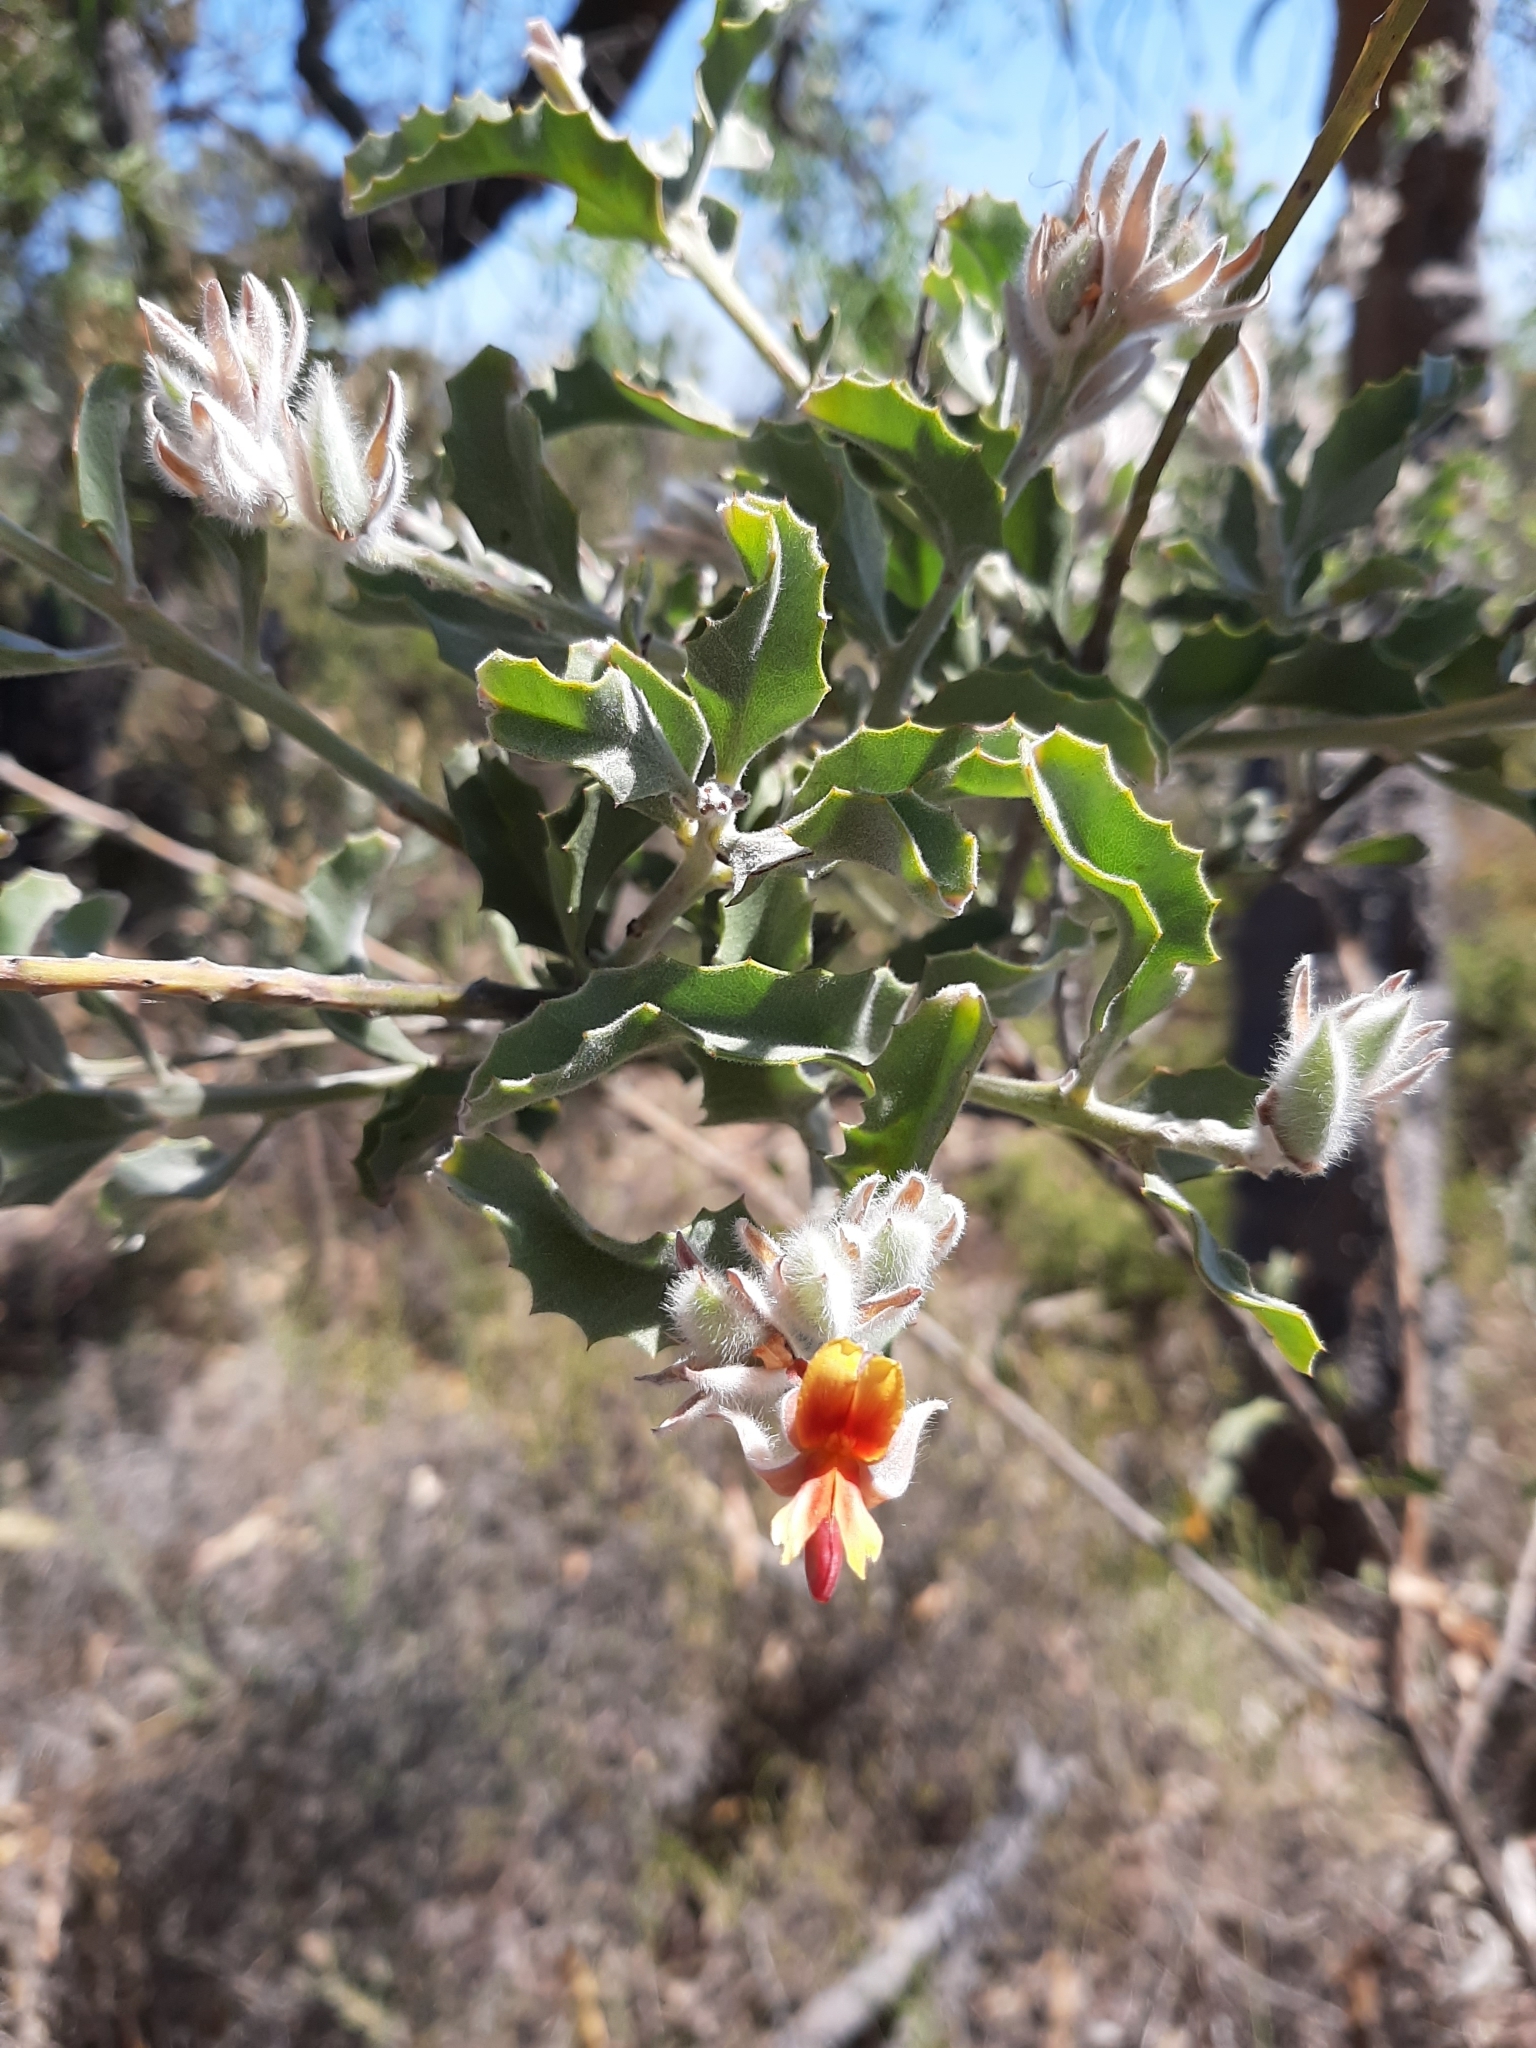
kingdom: Plantae
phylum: Tracheophyta
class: Magnoliopsida
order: Fabales
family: Fabaceae
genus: Jacksonia
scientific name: Jacksonia floribunda
